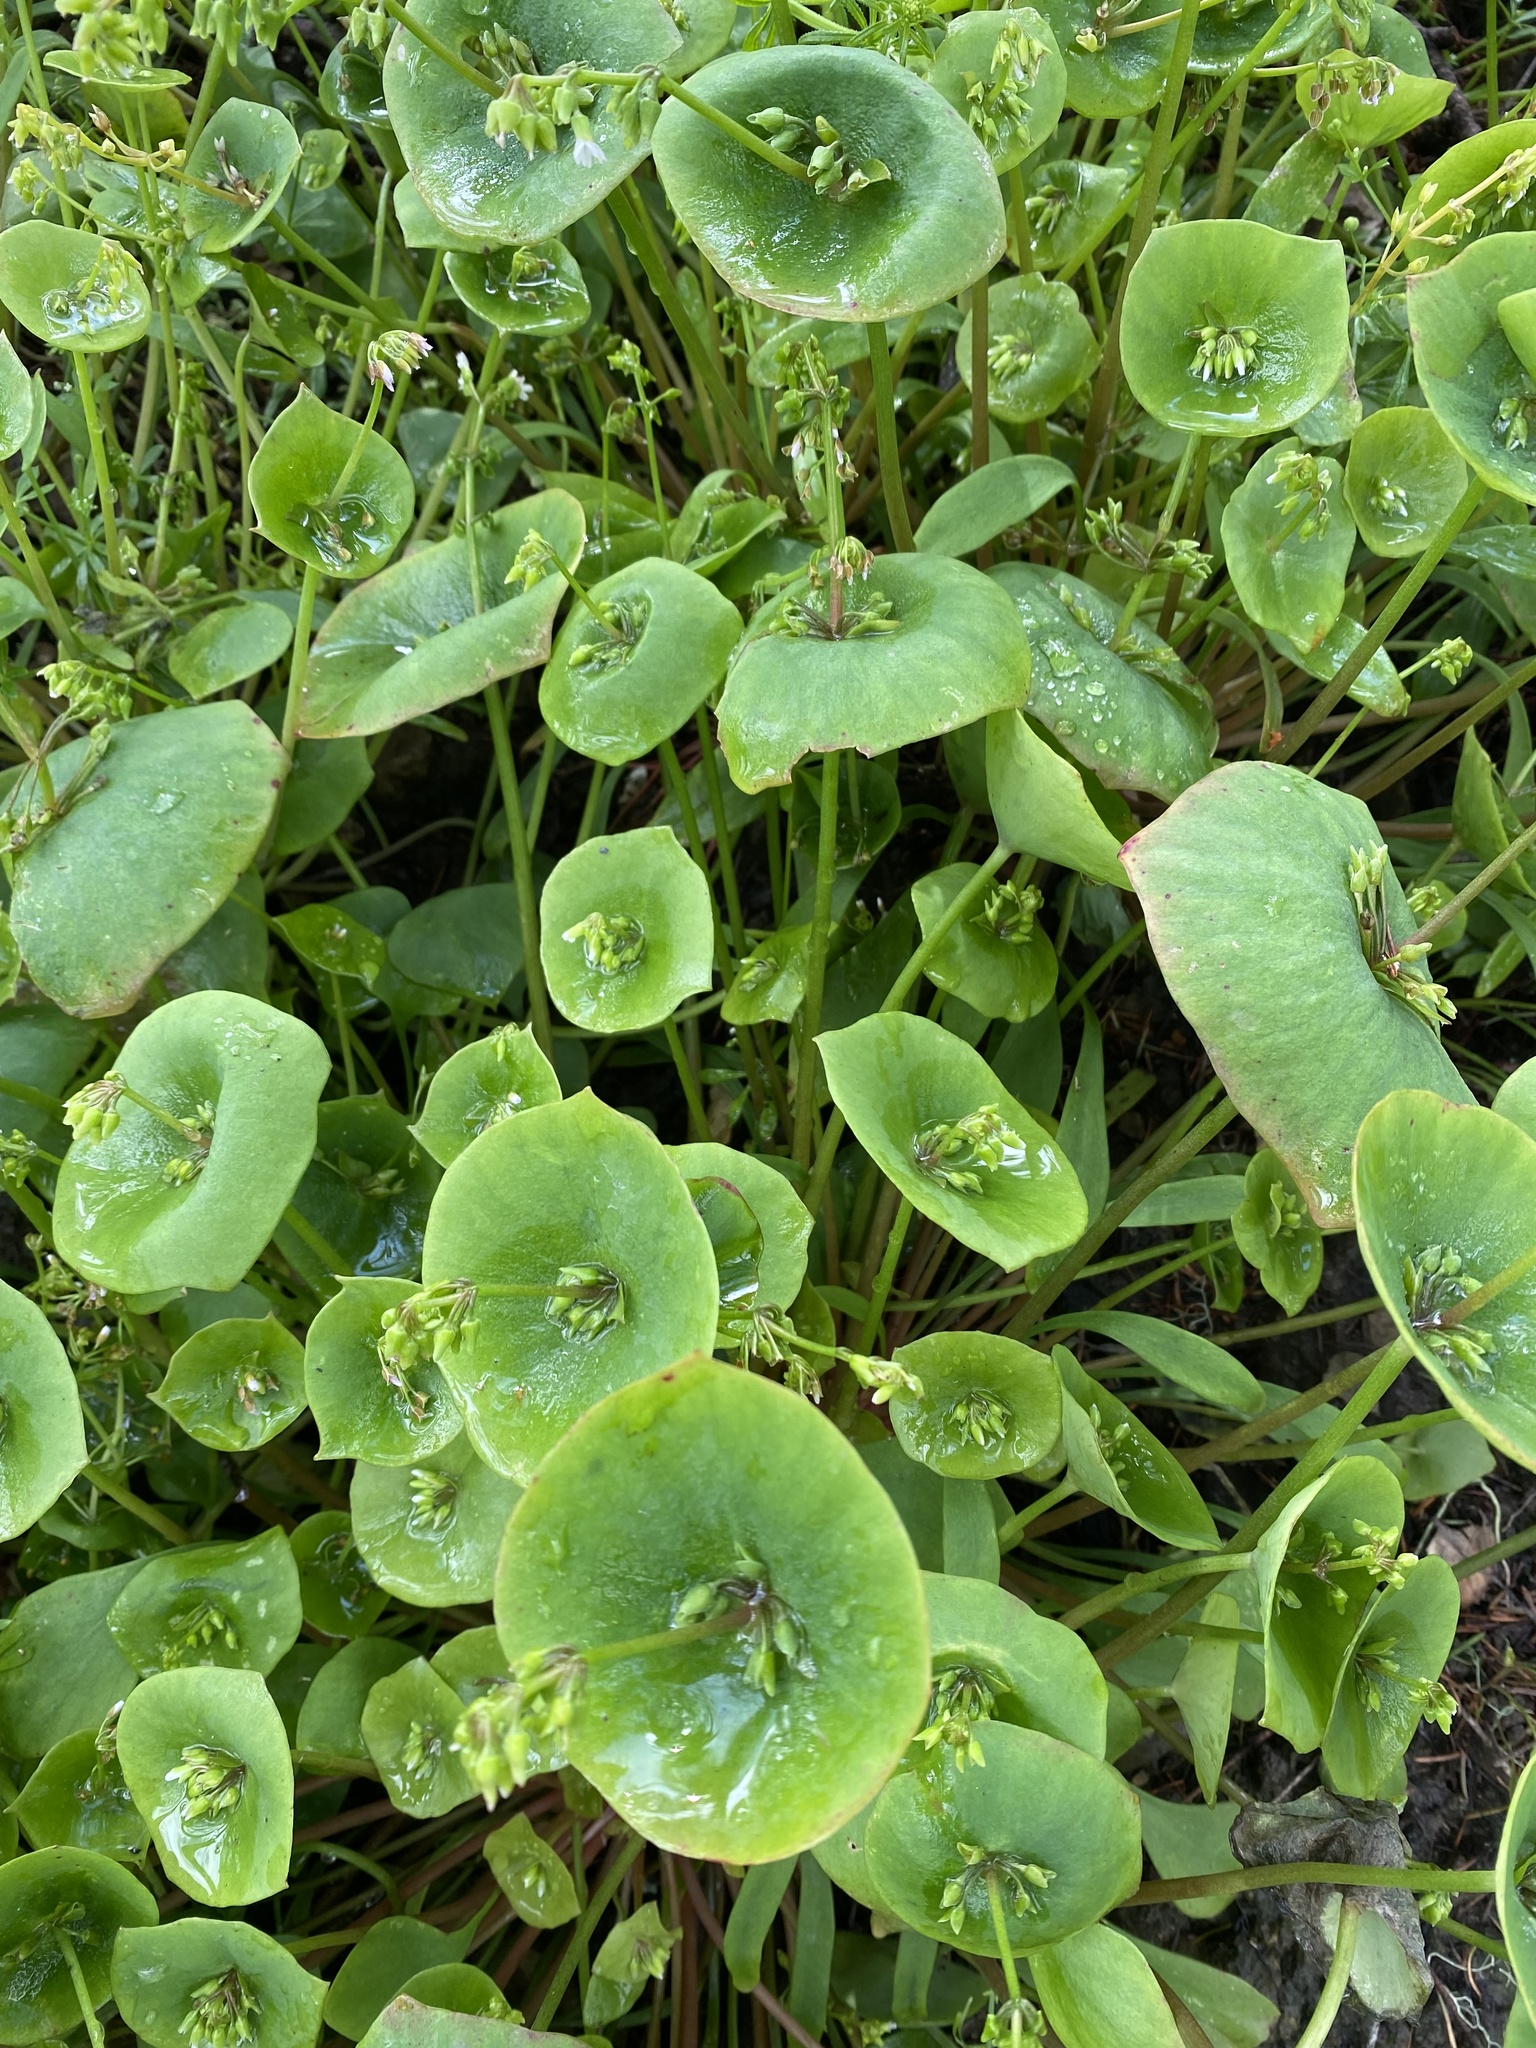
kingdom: Plantae
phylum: Tracheophyta
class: Magnoliopsida
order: Caryophyllales
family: Montiaceae
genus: Claytonia
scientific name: Claytonia perfoliata
